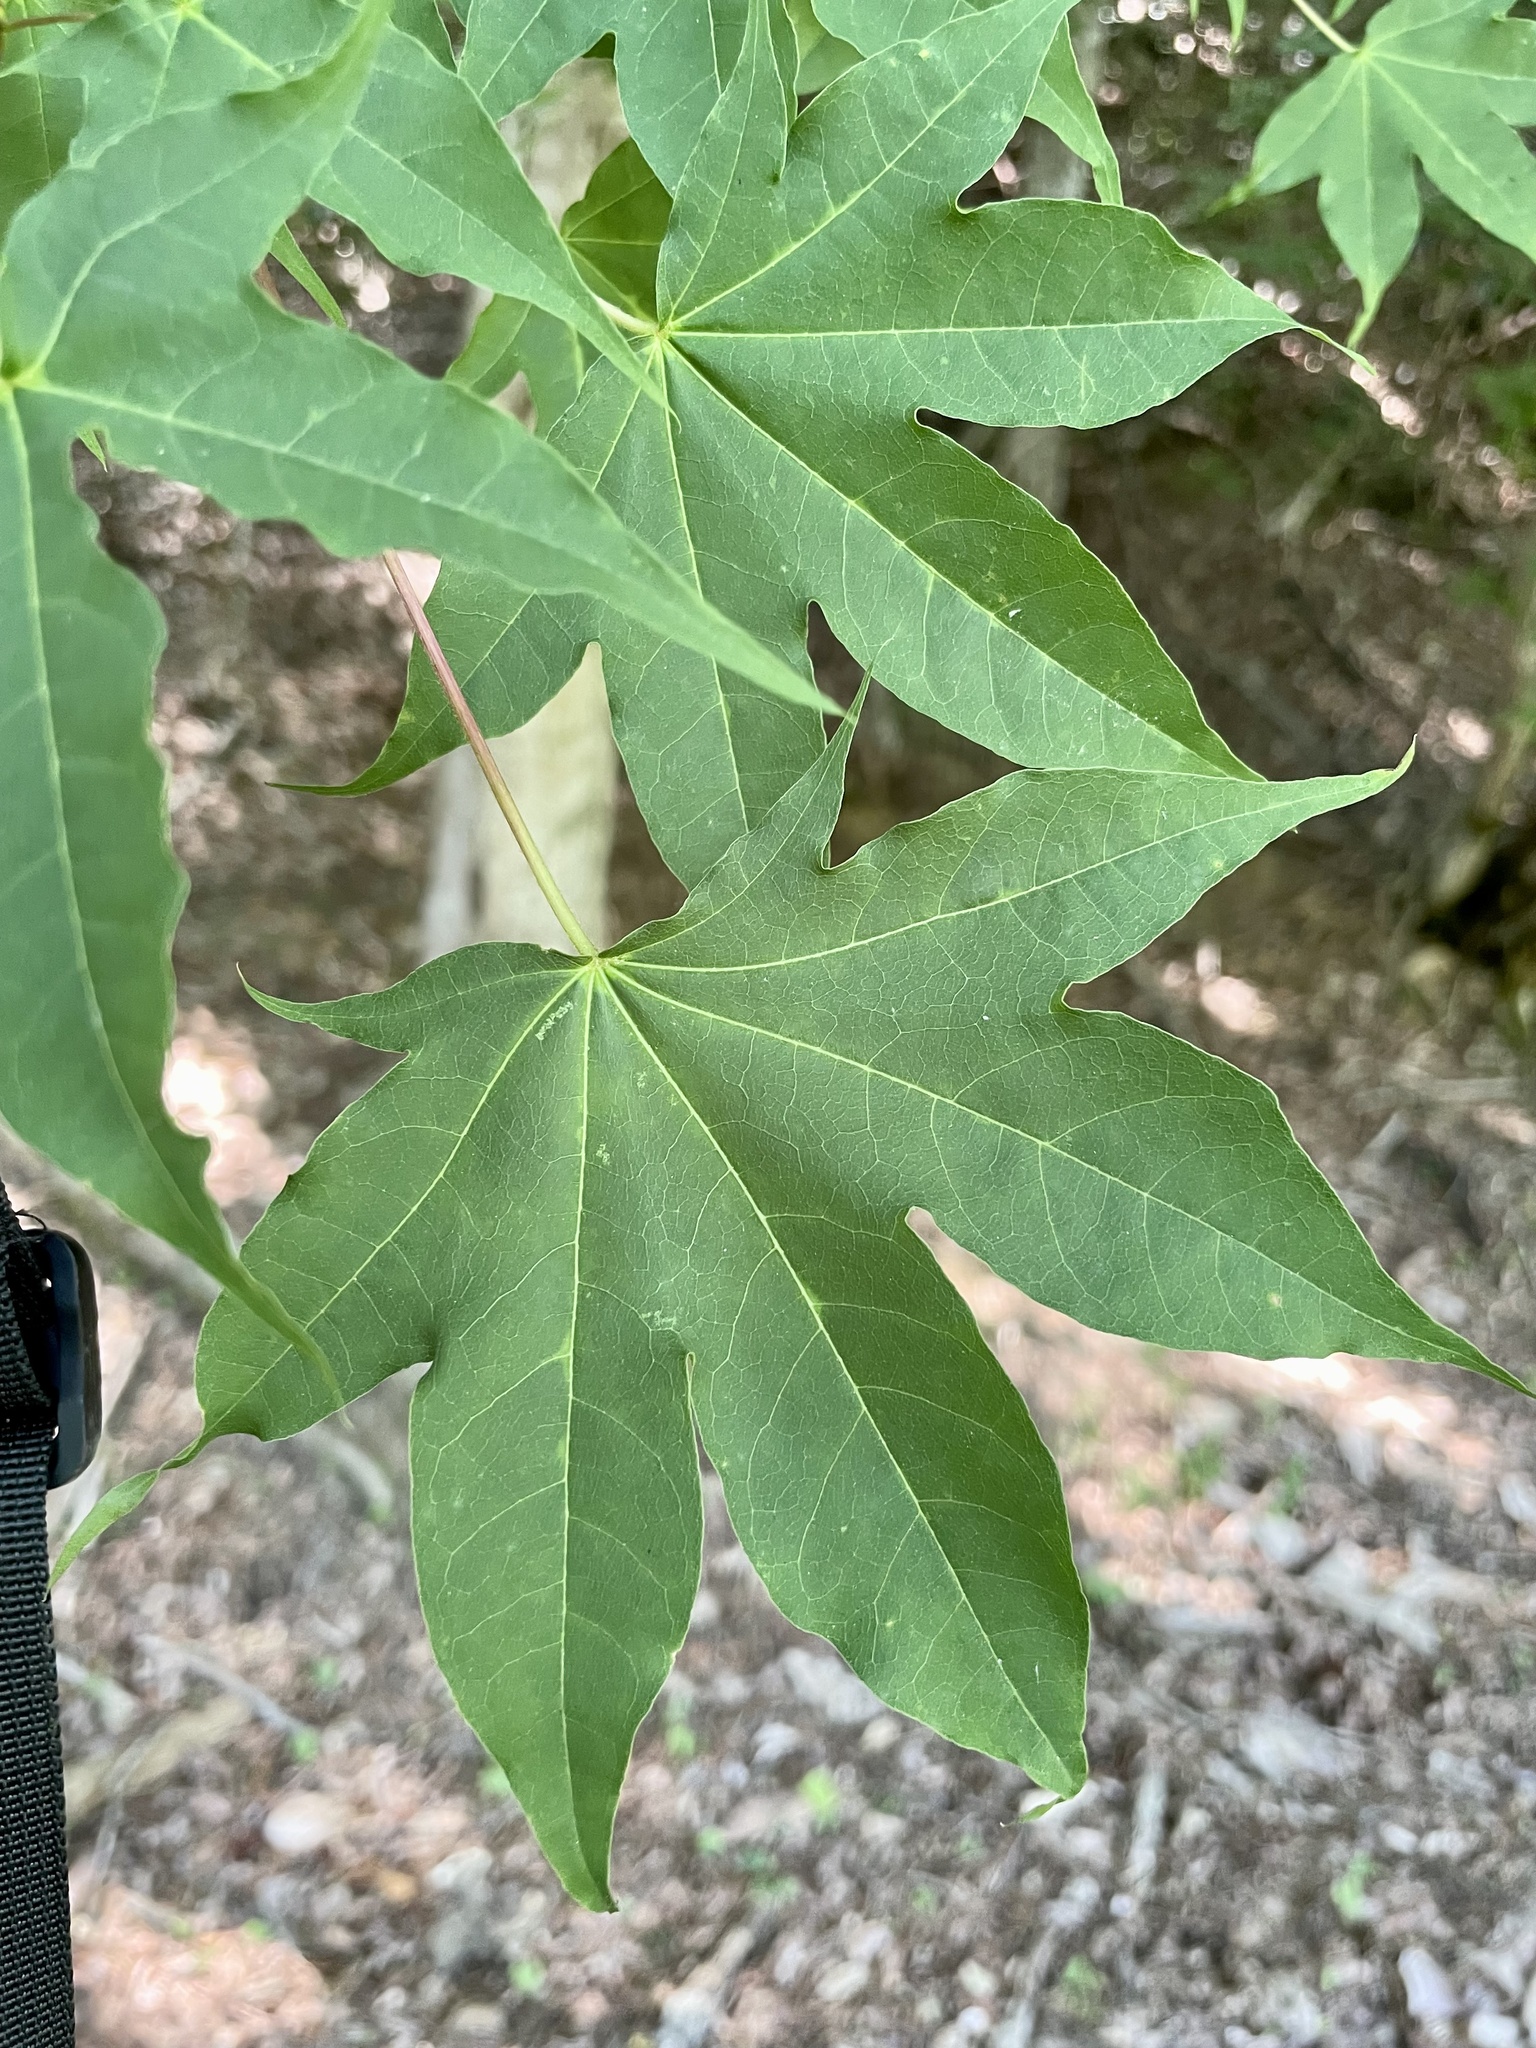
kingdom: Plantae
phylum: Tracheophyta
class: Magnoliopsida
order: Sapindales
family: Sapindaceae
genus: Acer
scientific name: Acer pictum
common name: The painted maple
